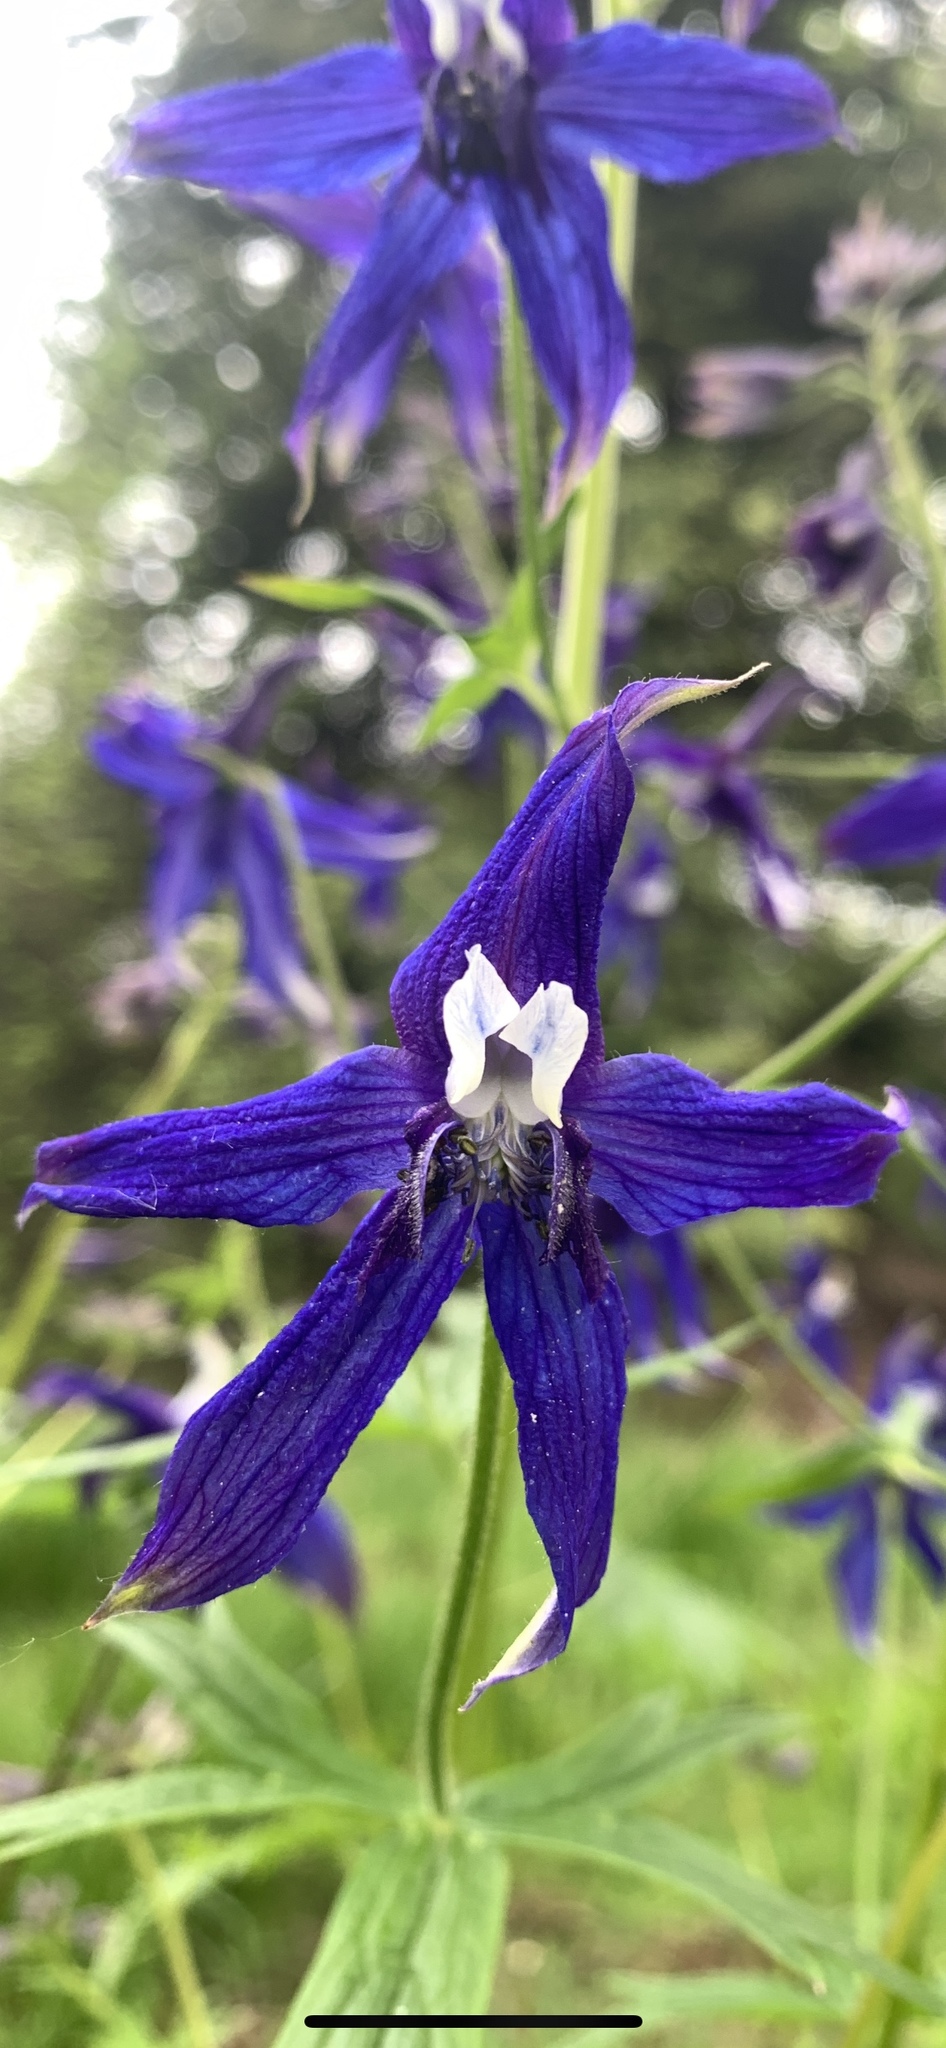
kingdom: Plantae
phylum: Tracheophyta
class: Magnoliopsida
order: Ranunculales
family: Ranunculaceae
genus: Delphinium
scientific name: Delphinium trolliifolium
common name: Cow-poison
